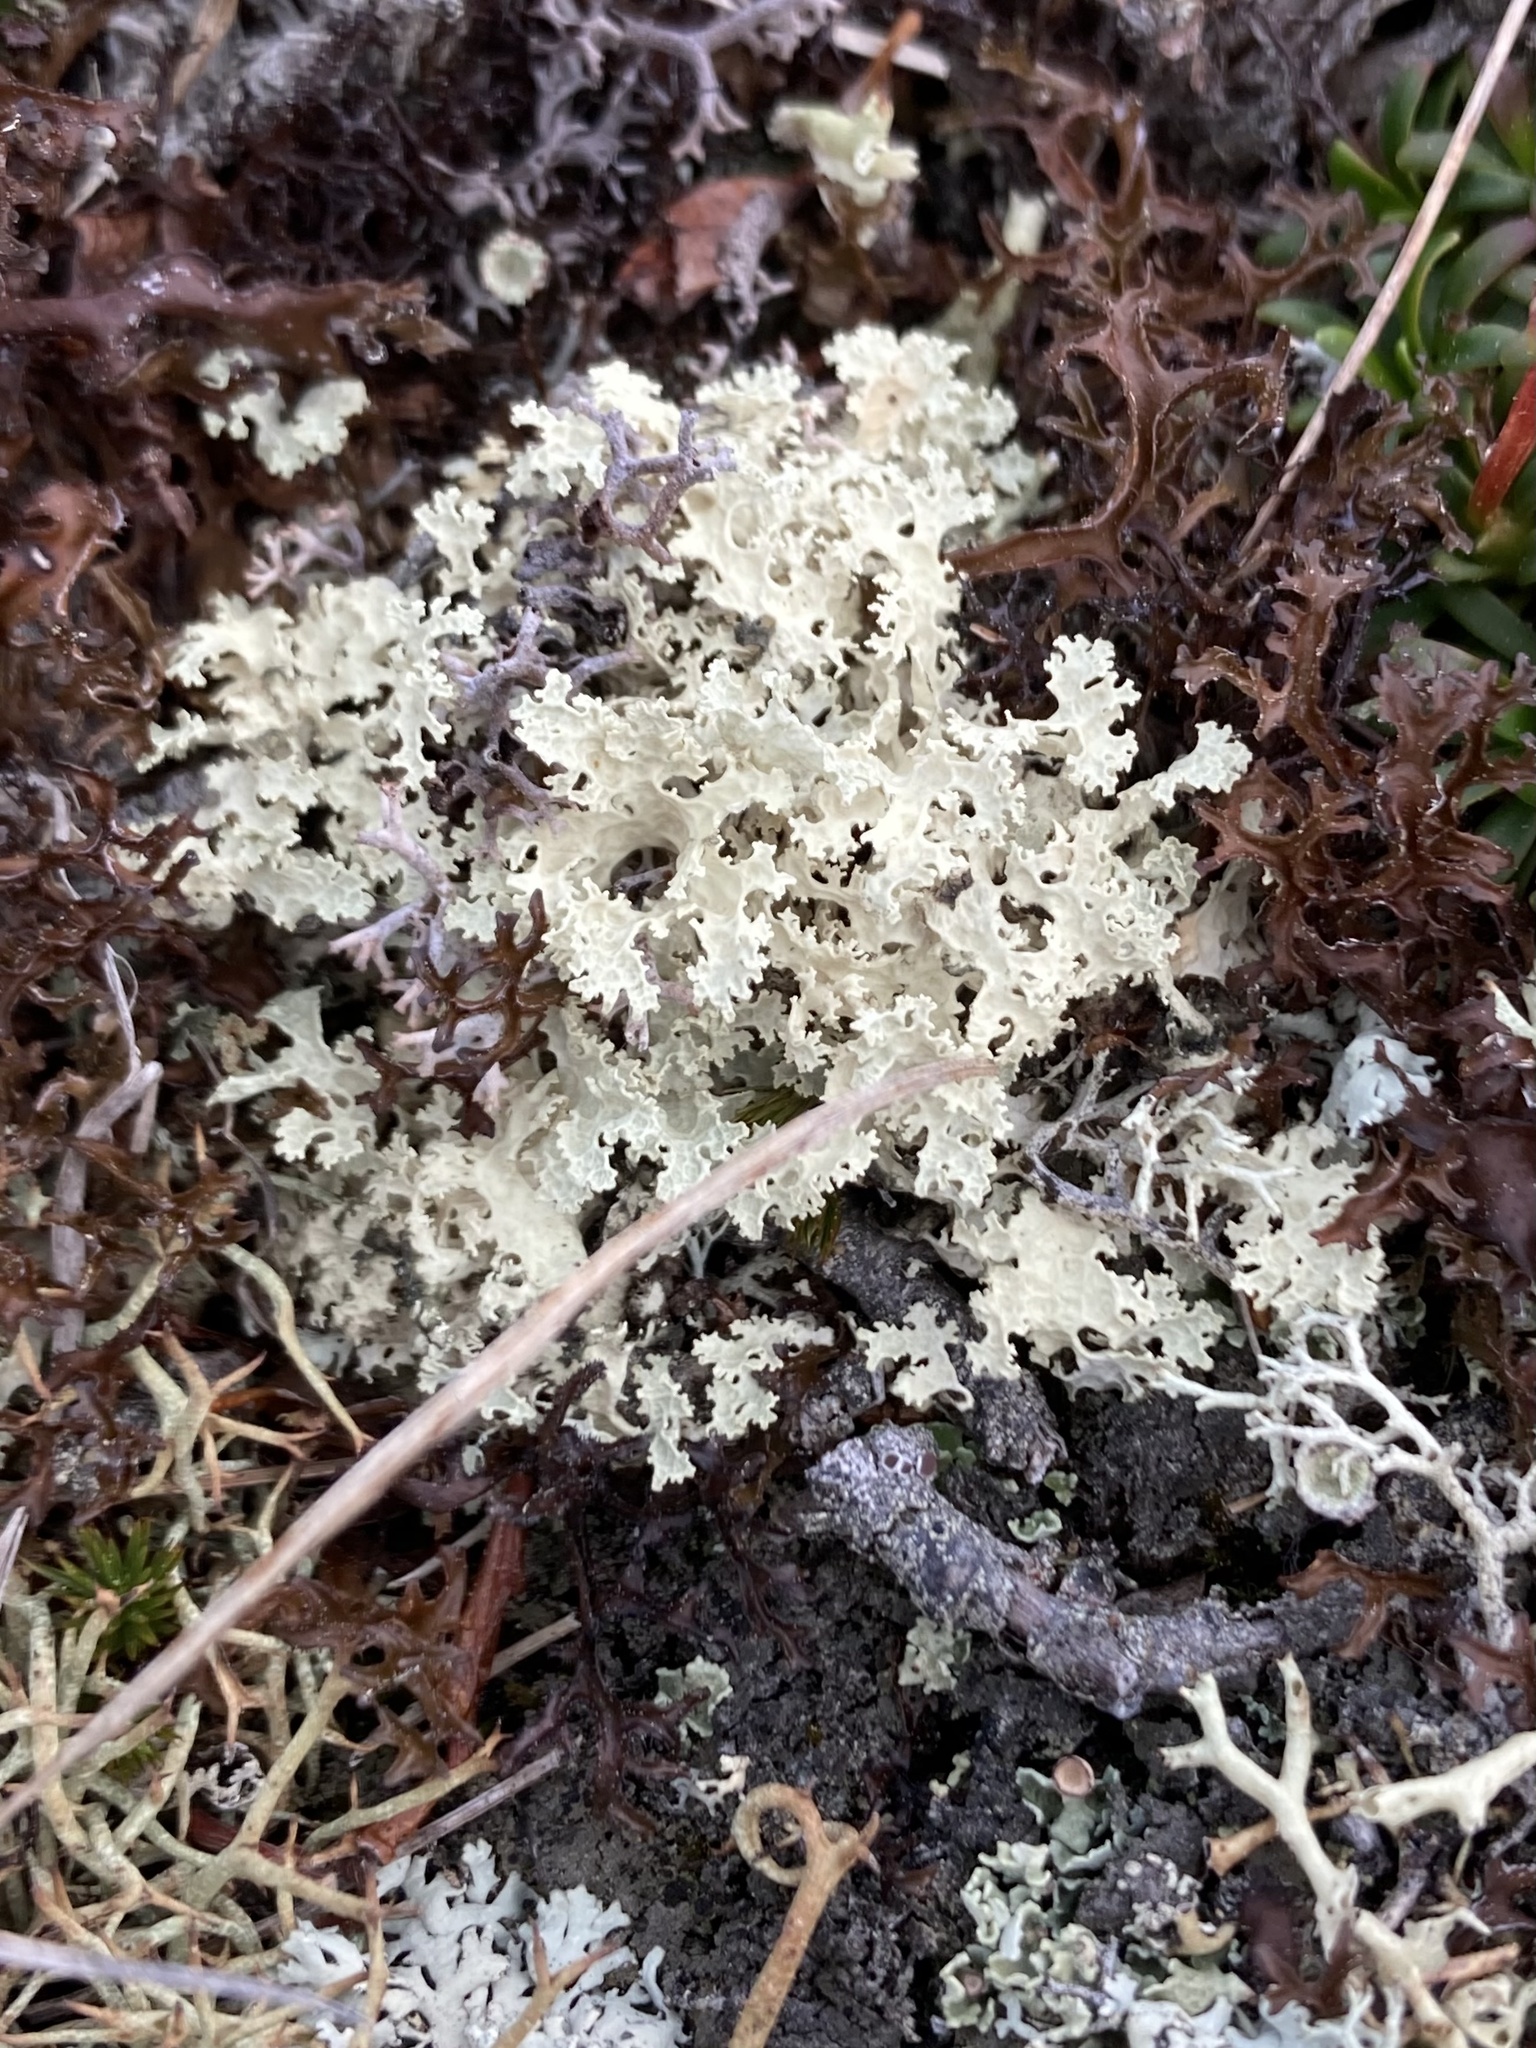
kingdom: Fungi
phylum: Ascomycota
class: Lecanoromycetes
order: Lecanorales
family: Parmeliaceae
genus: Nephromopsis
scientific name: Nephromopsis nivalis
